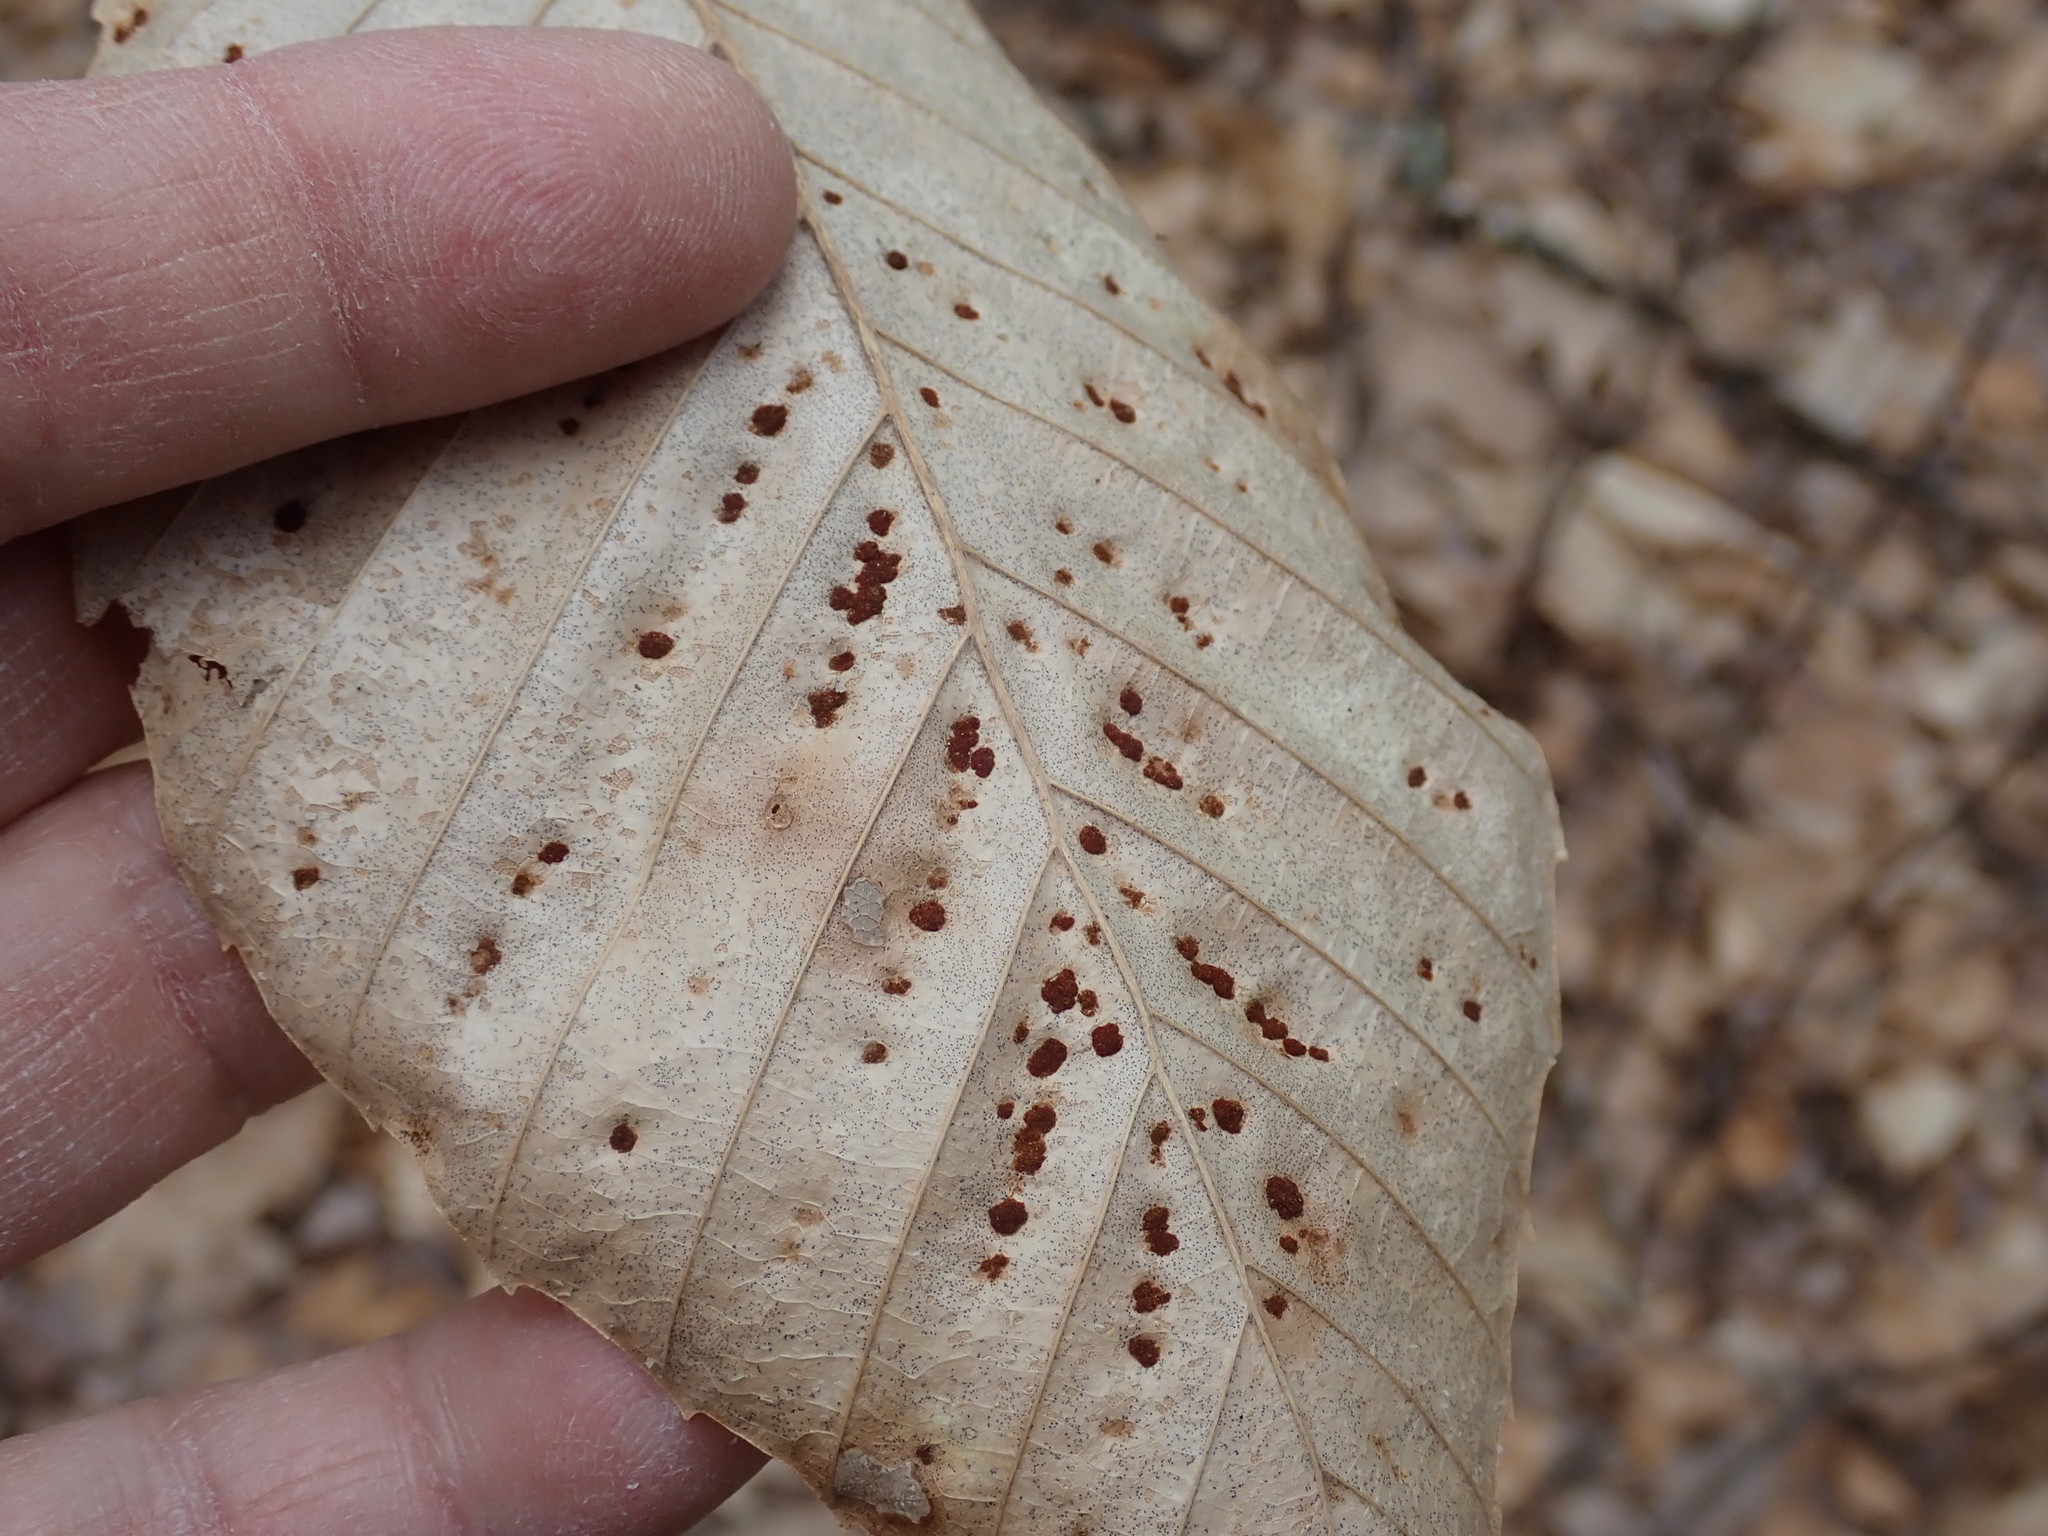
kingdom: Animalia
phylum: Arthropoda
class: Arachnida
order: Trombidiformes
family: Eriophyidae
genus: Acalitus
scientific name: Acalitus
